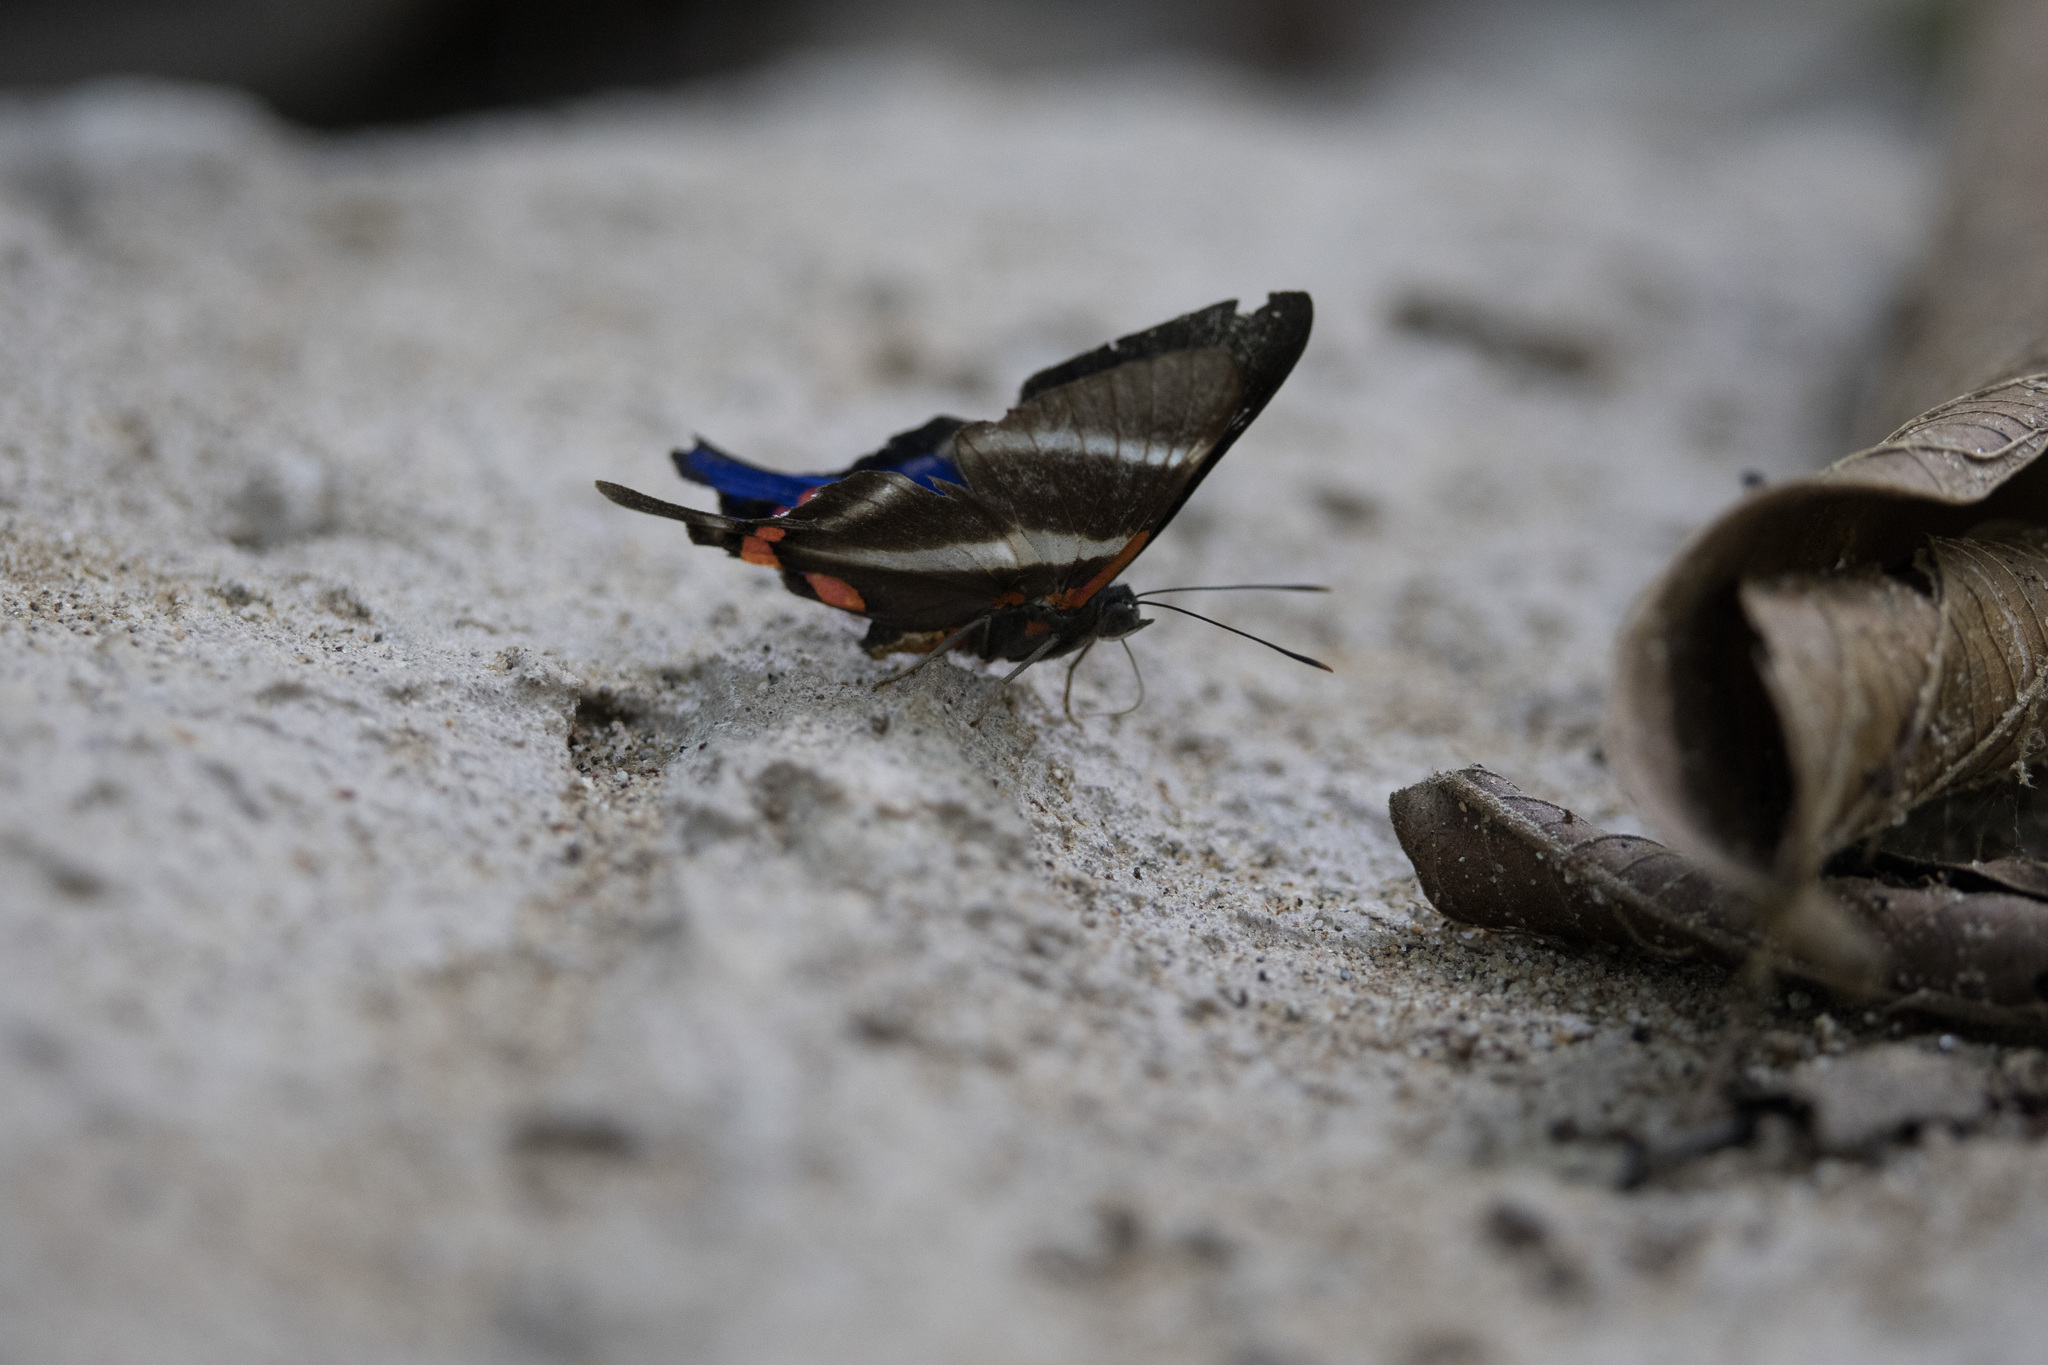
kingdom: Animalia
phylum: Arthropoda
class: Insecta
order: Lepidoptera
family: Riodinidae
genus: Rhetus
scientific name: Rhetus periander
